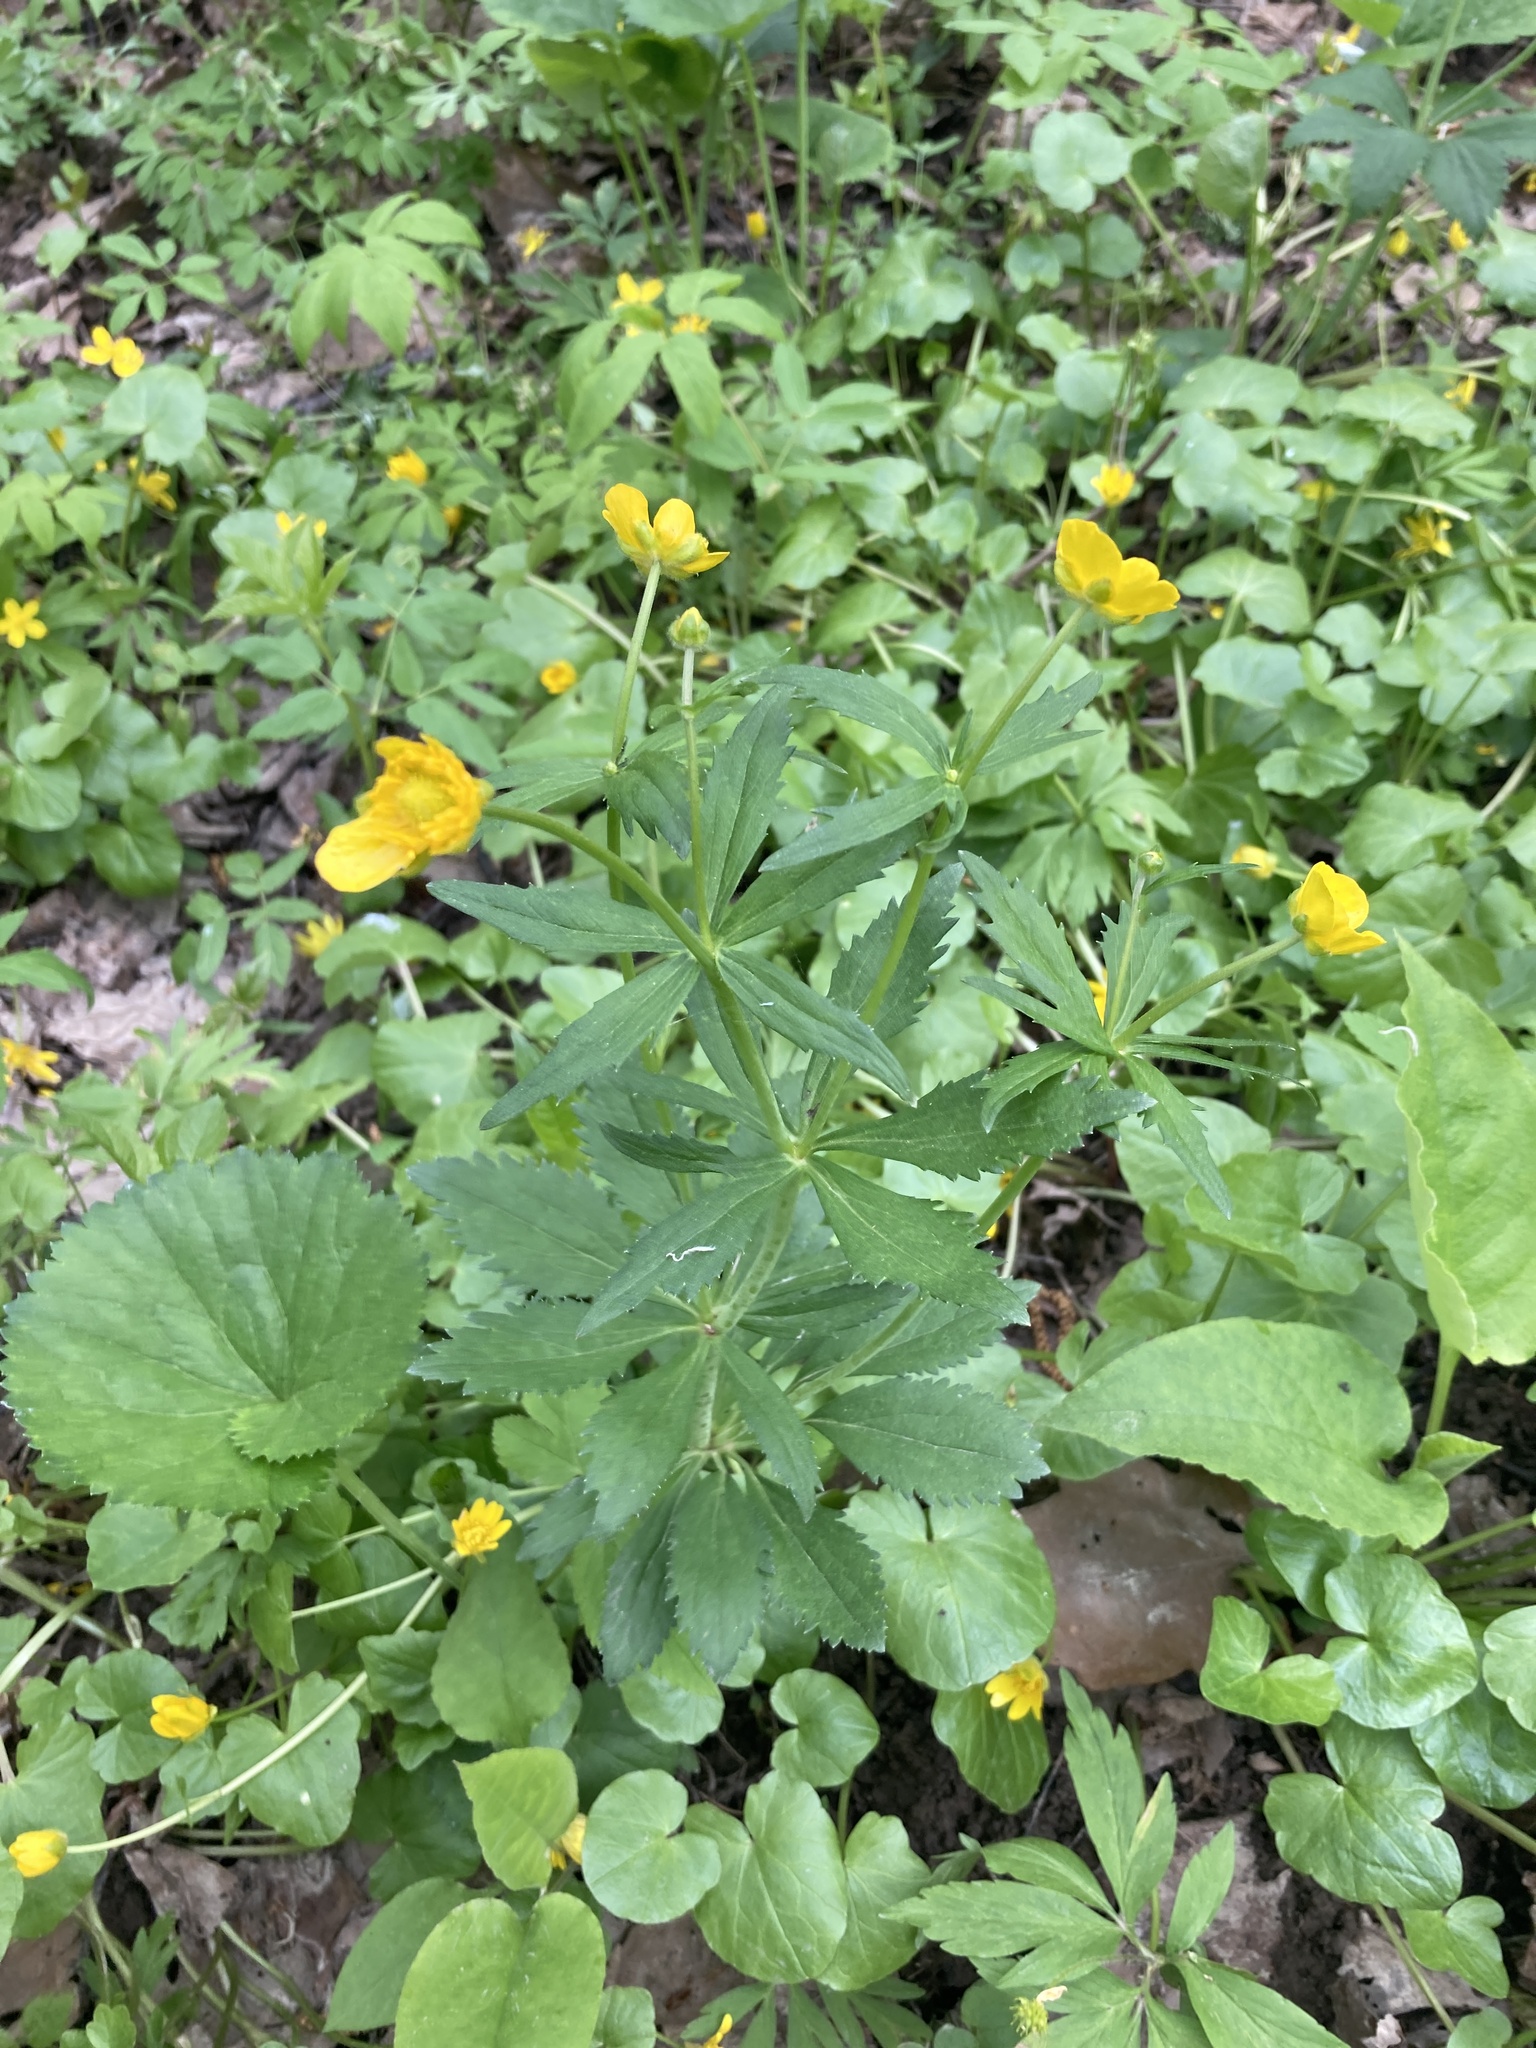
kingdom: Plantae
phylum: Tracheophyta
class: Magnoliopsida
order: Ranunculales
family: Ranunculaceae
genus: Ranunculus
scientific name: Ranunculus cassubicus
